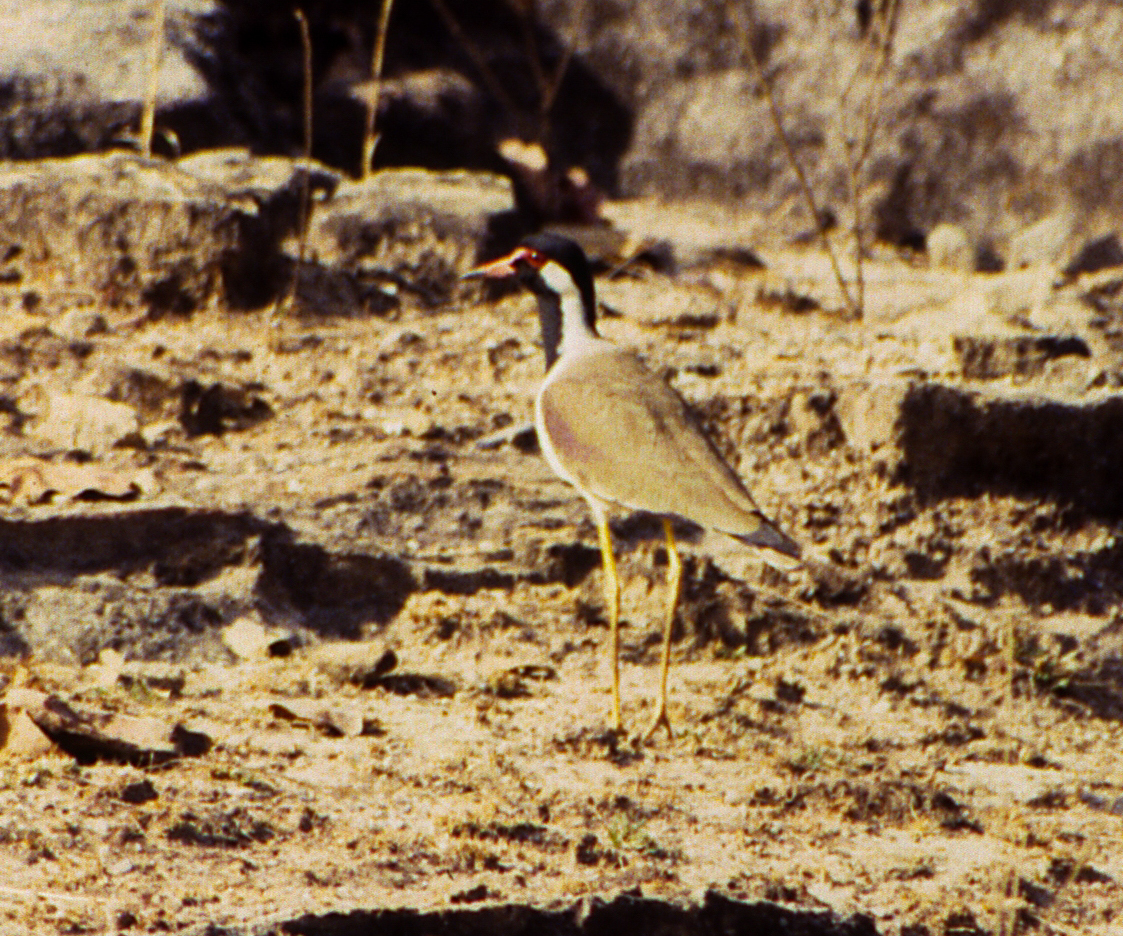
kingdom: Animalia
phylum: Chordata
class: Aves
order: Charadriiformes
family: Charadriidae
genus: Vanellus
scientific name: Vanellus indicus
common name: Red-wattled lapwing
